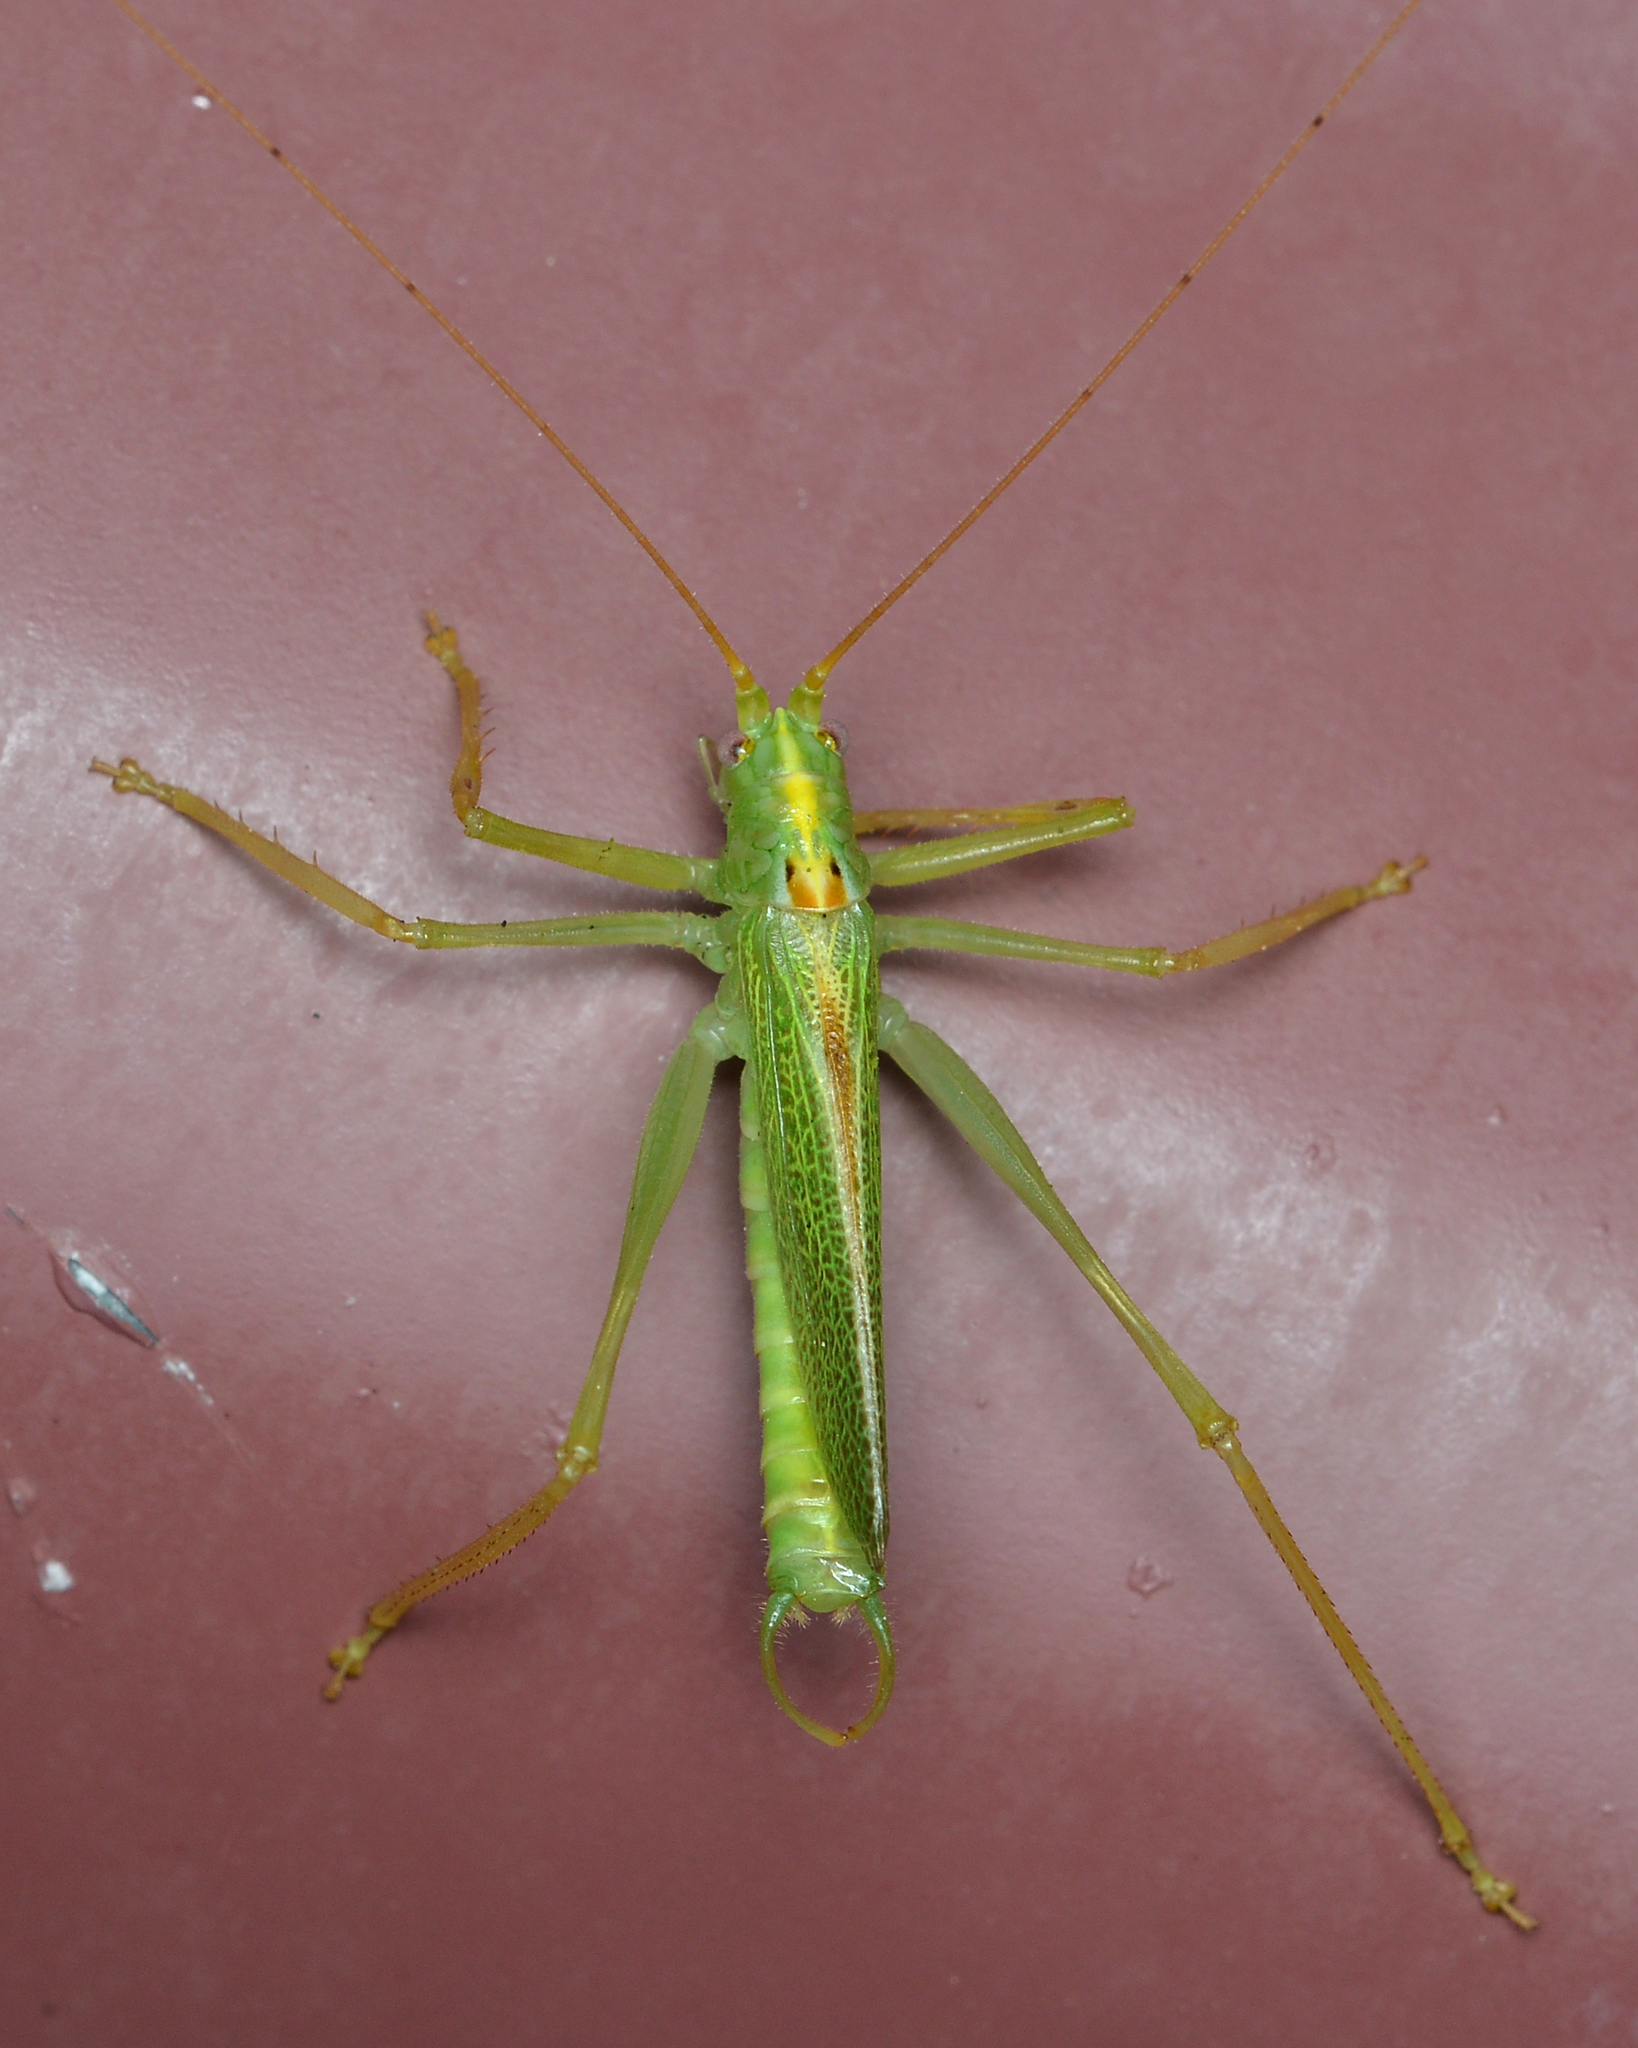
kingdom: Animalia
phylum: Arthropoda
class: Insecta
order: Orthoptera
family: Tettigoniidae
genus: Meconema
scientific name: Meconema thalassinum
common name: Oak bush-cricket
